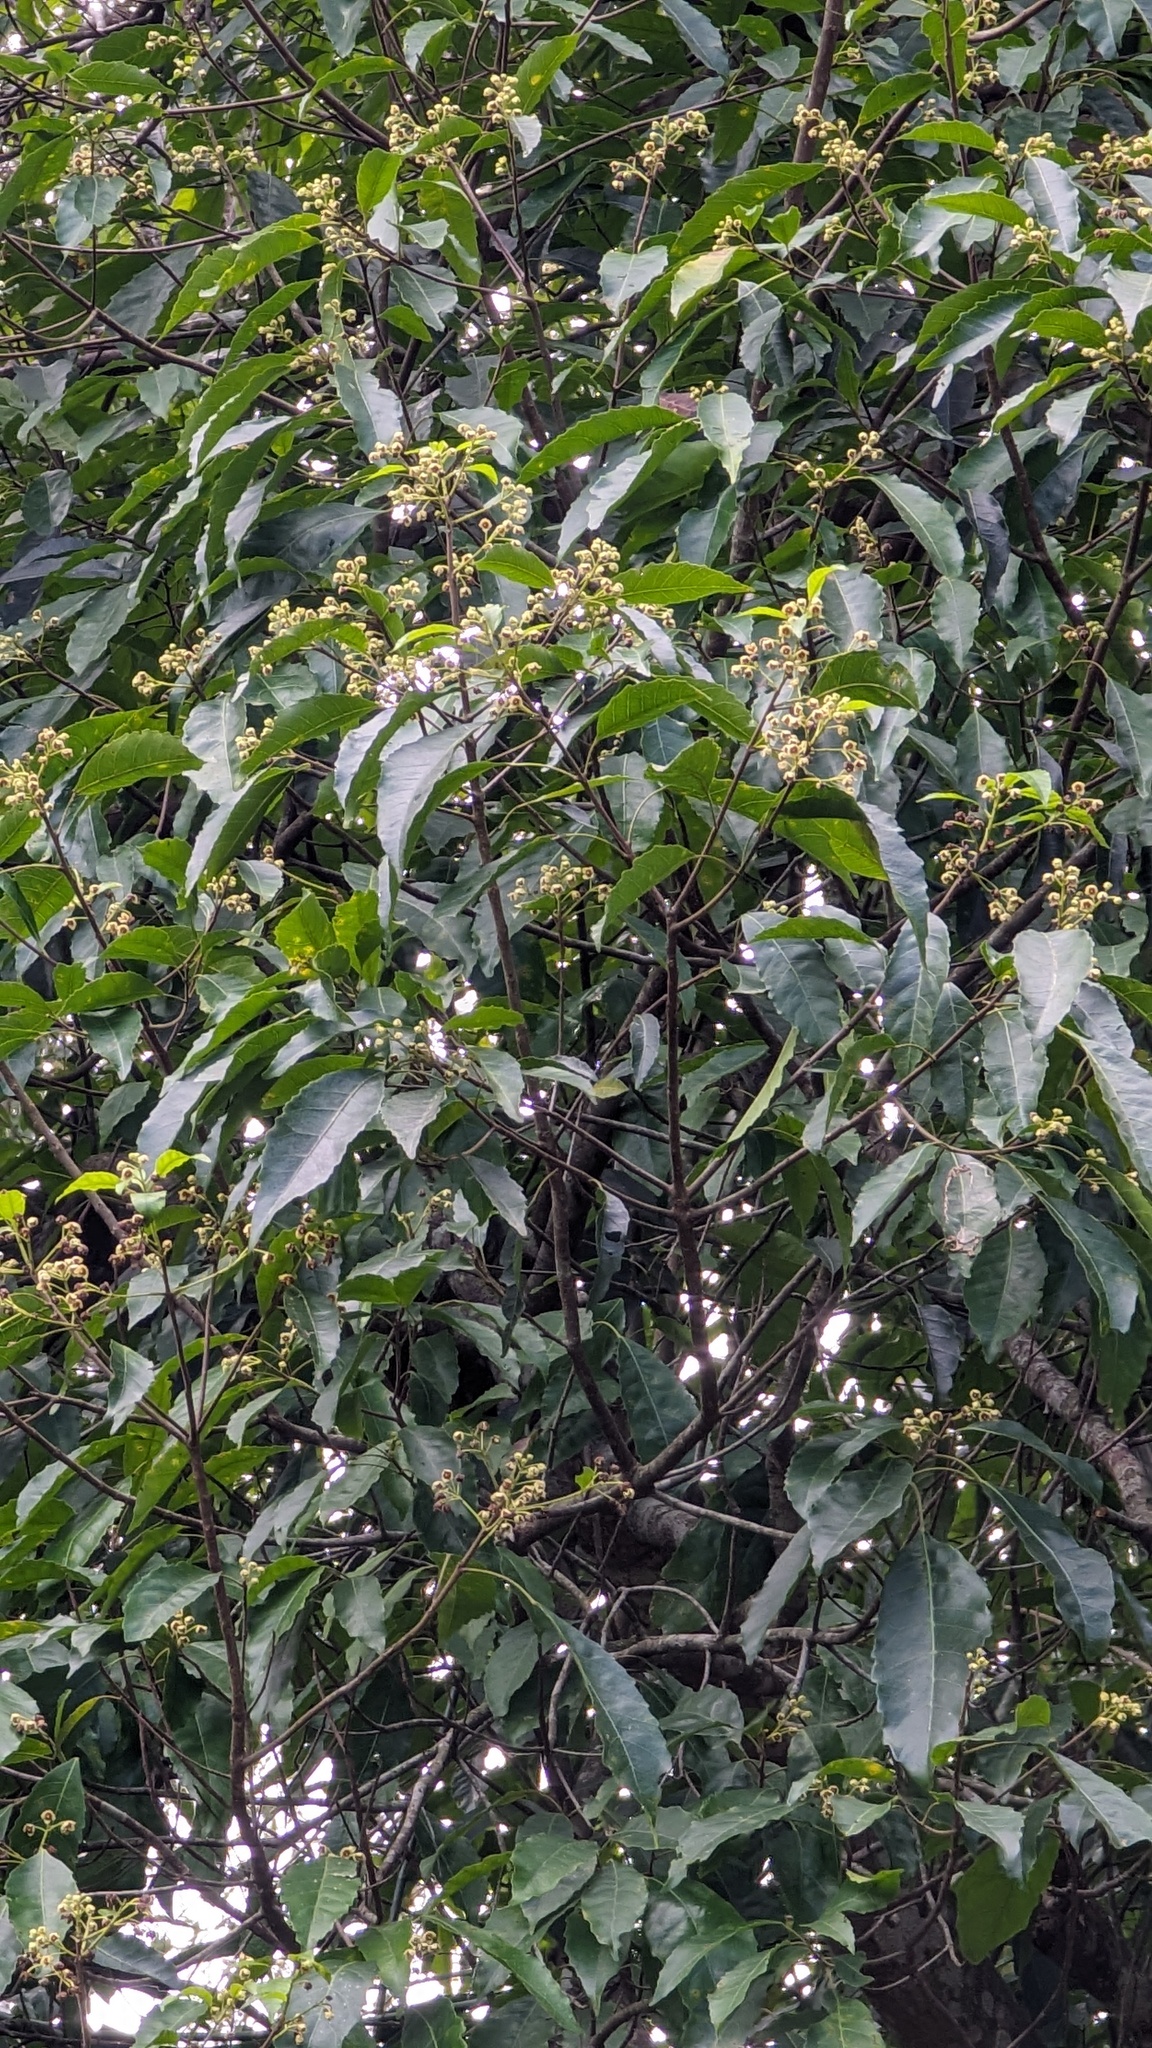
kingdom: Plantae
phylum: Tracheophyta
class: Magnoliopsida
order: Oxalidales
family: Elaeocarpaceae
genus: Sloanea
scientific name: Sloanea woollsii
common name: Yellow carabeen
